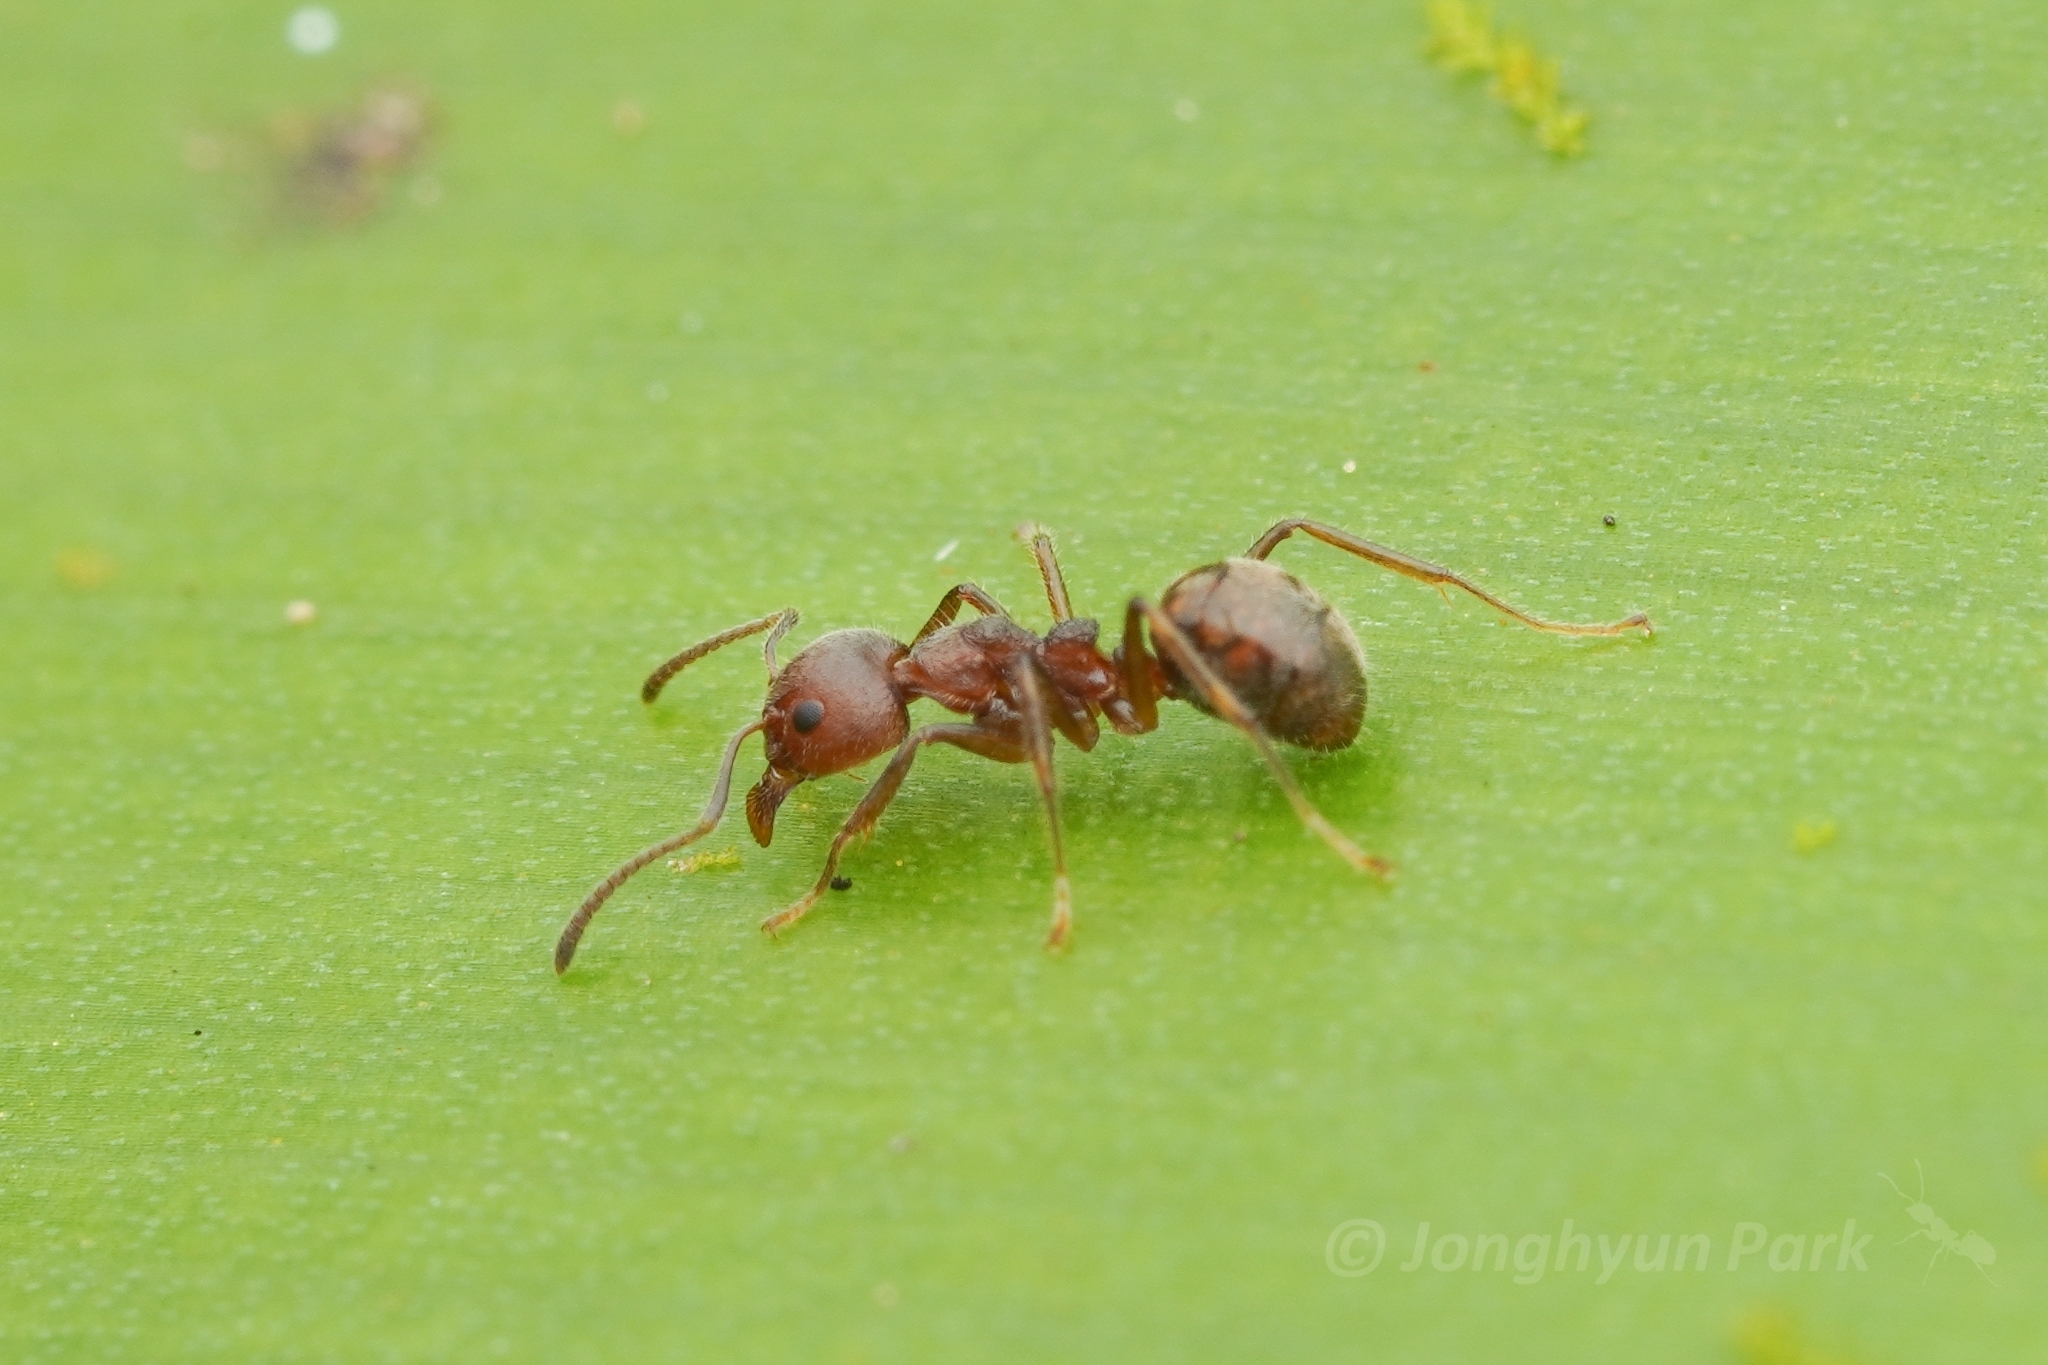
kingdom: Animalia
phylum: Arthropoda
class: Insecta
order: Hymenoptera
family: Formicidae
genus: Dolichoderus
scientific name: Dolichoderus thoracicus
